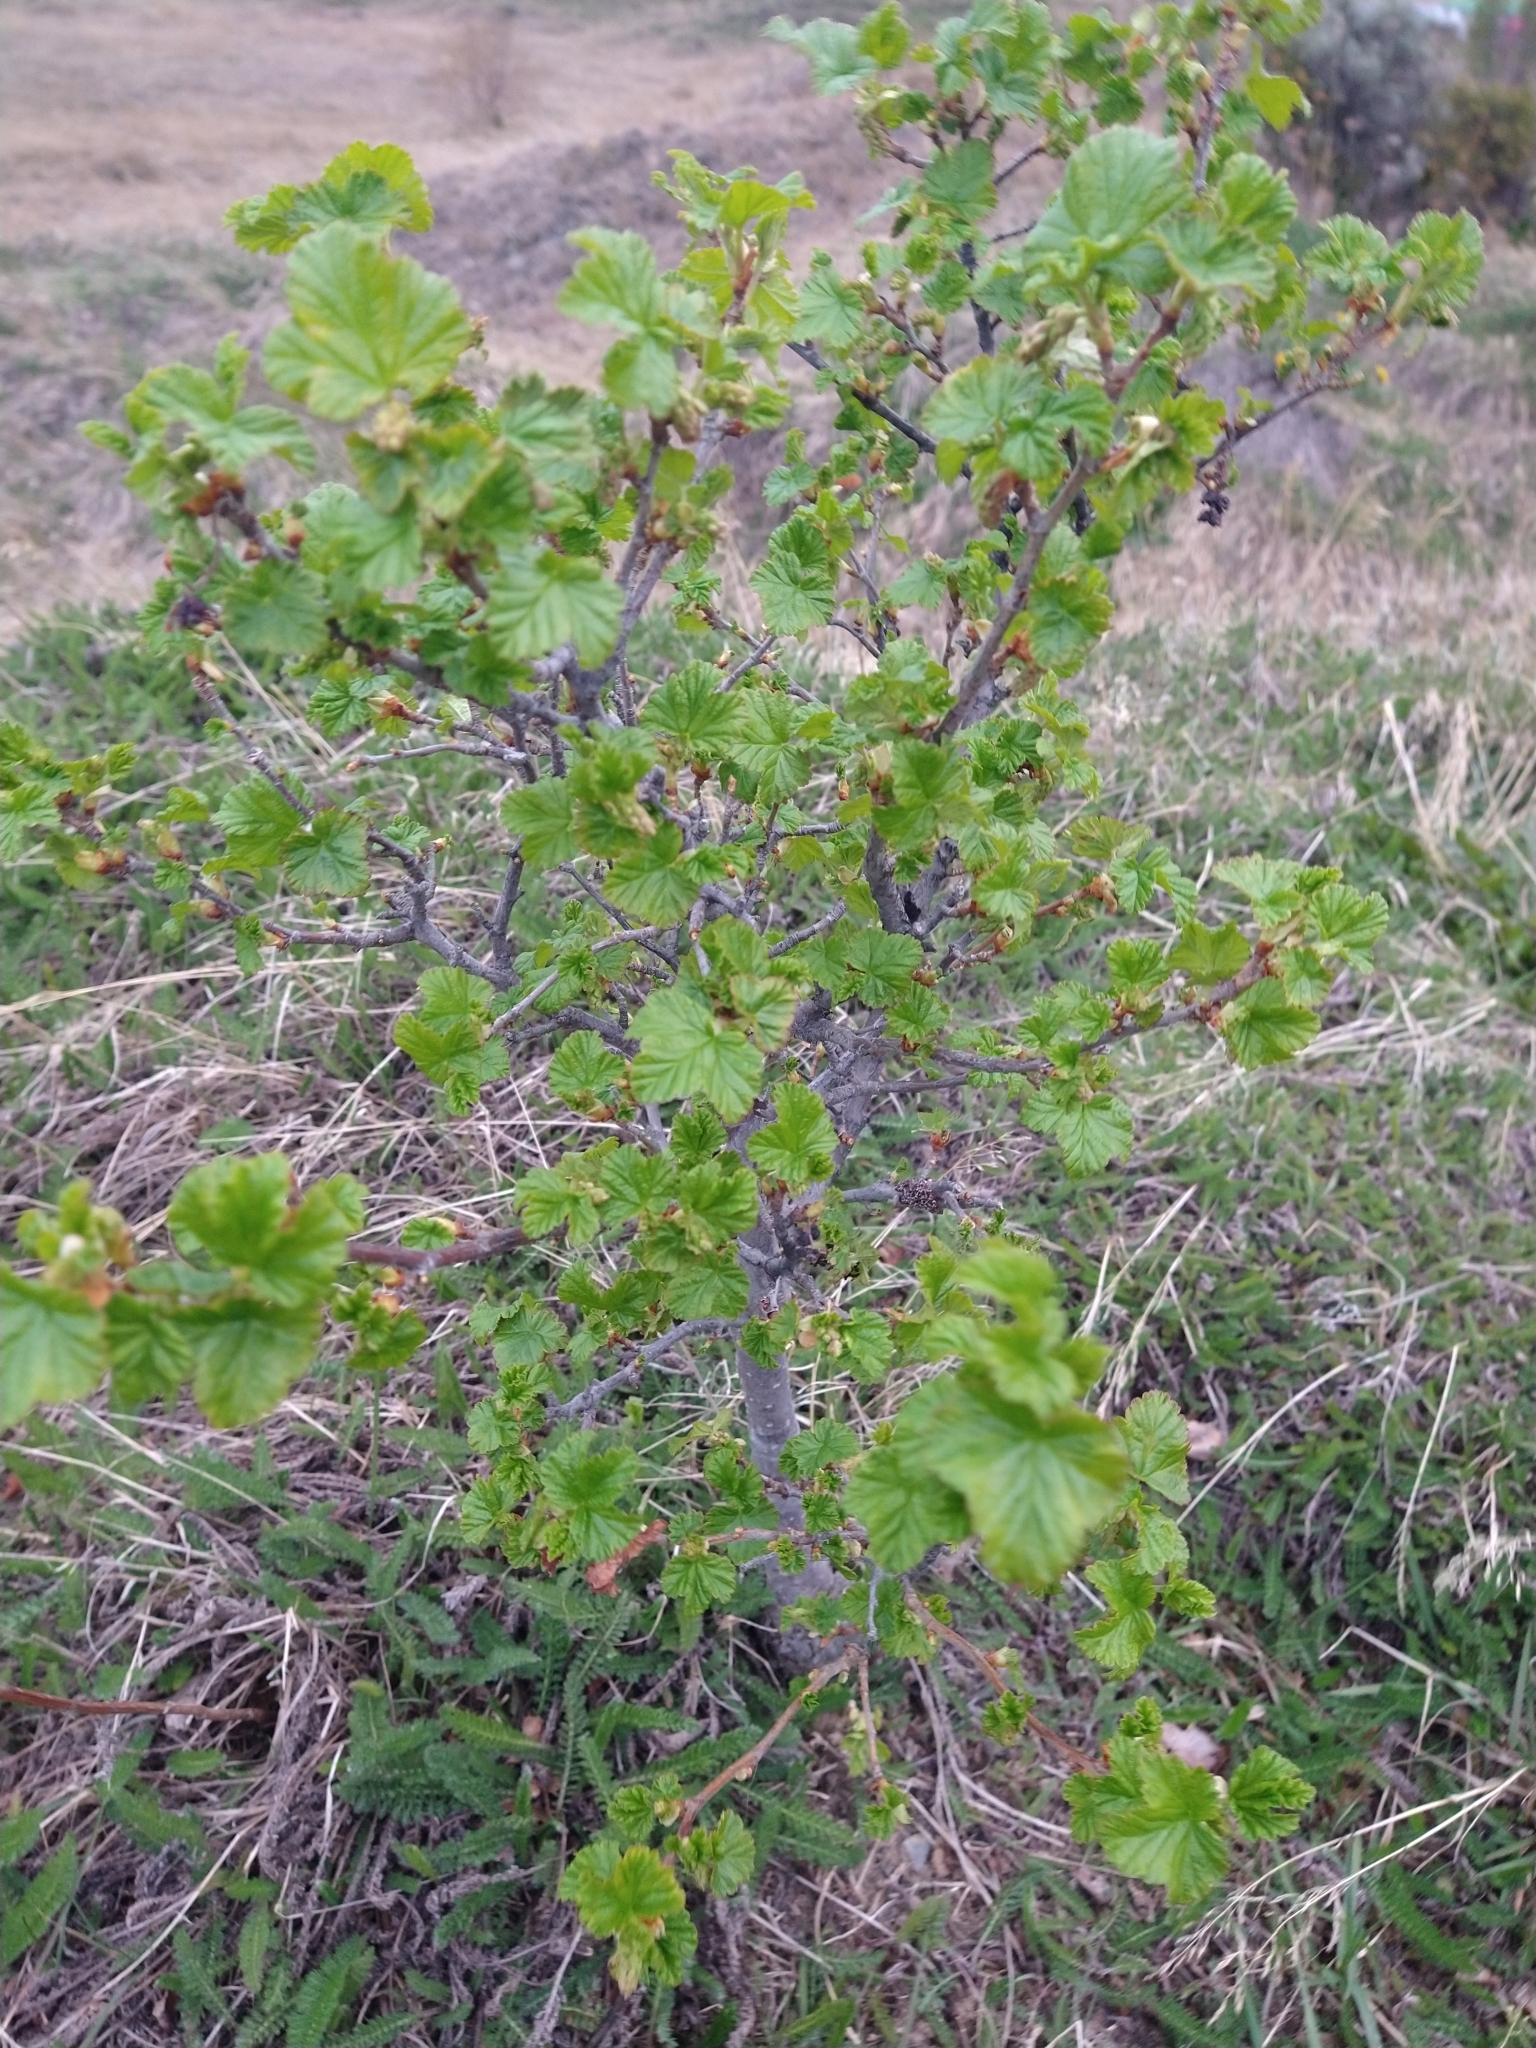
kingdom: Plantae
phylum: Tracheophyta
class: Magnoliopsida
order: Saxifragales
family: Grossulariaceae
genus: Ribes
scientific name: Ribes magellanicum
